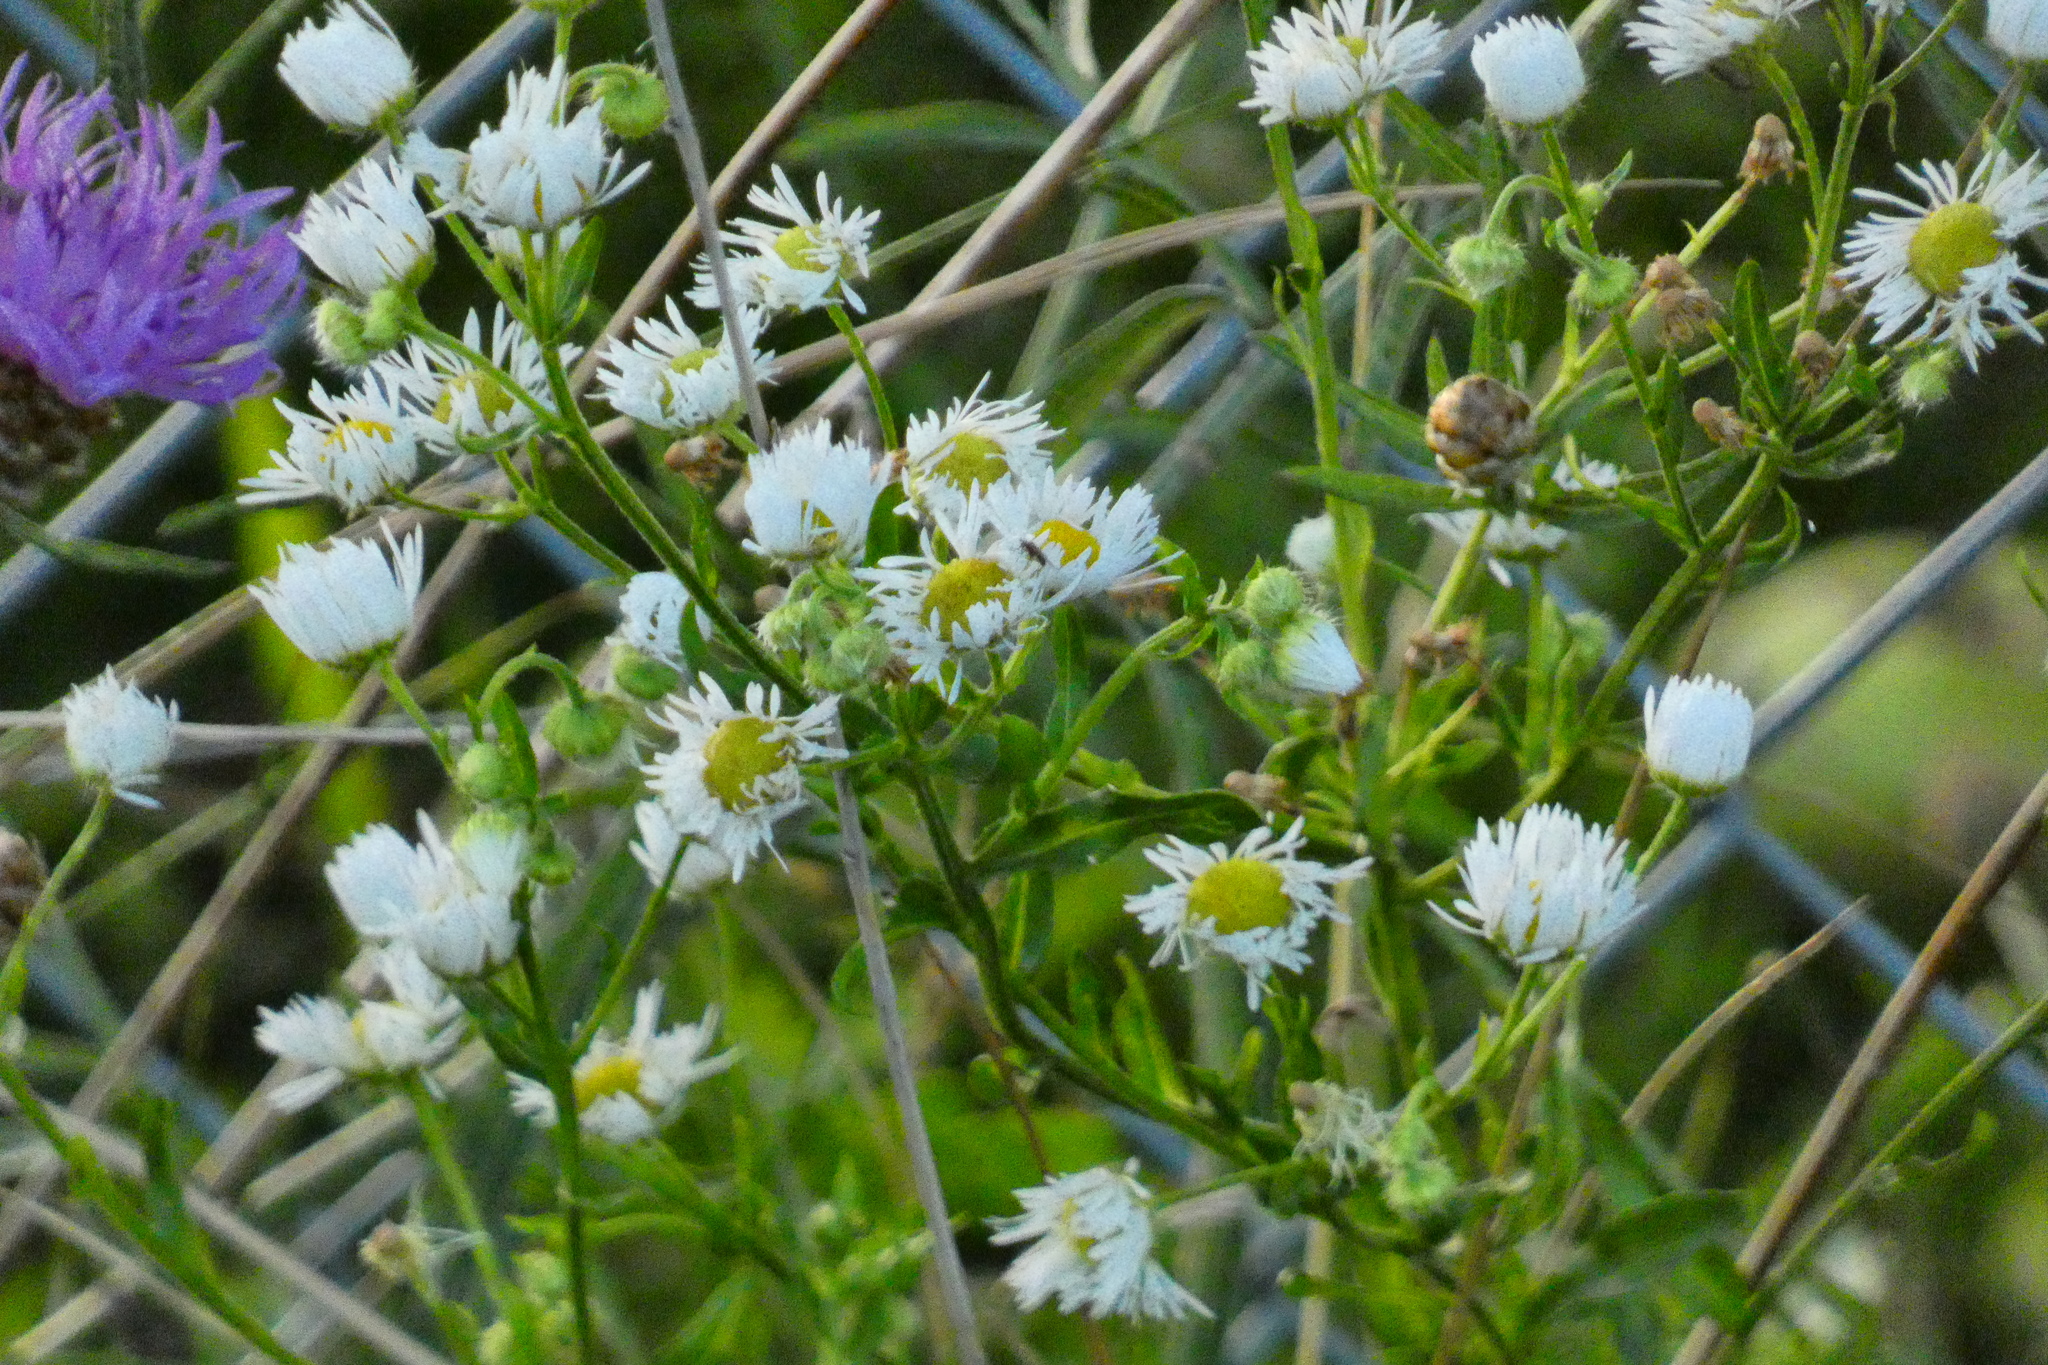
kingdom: Plantae
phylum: Tracheophyta
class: Magnoliopsida
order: Asterales
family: Asteraceae
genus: Erigeron
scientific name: Erigeron annuus
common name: Tall fleabane
